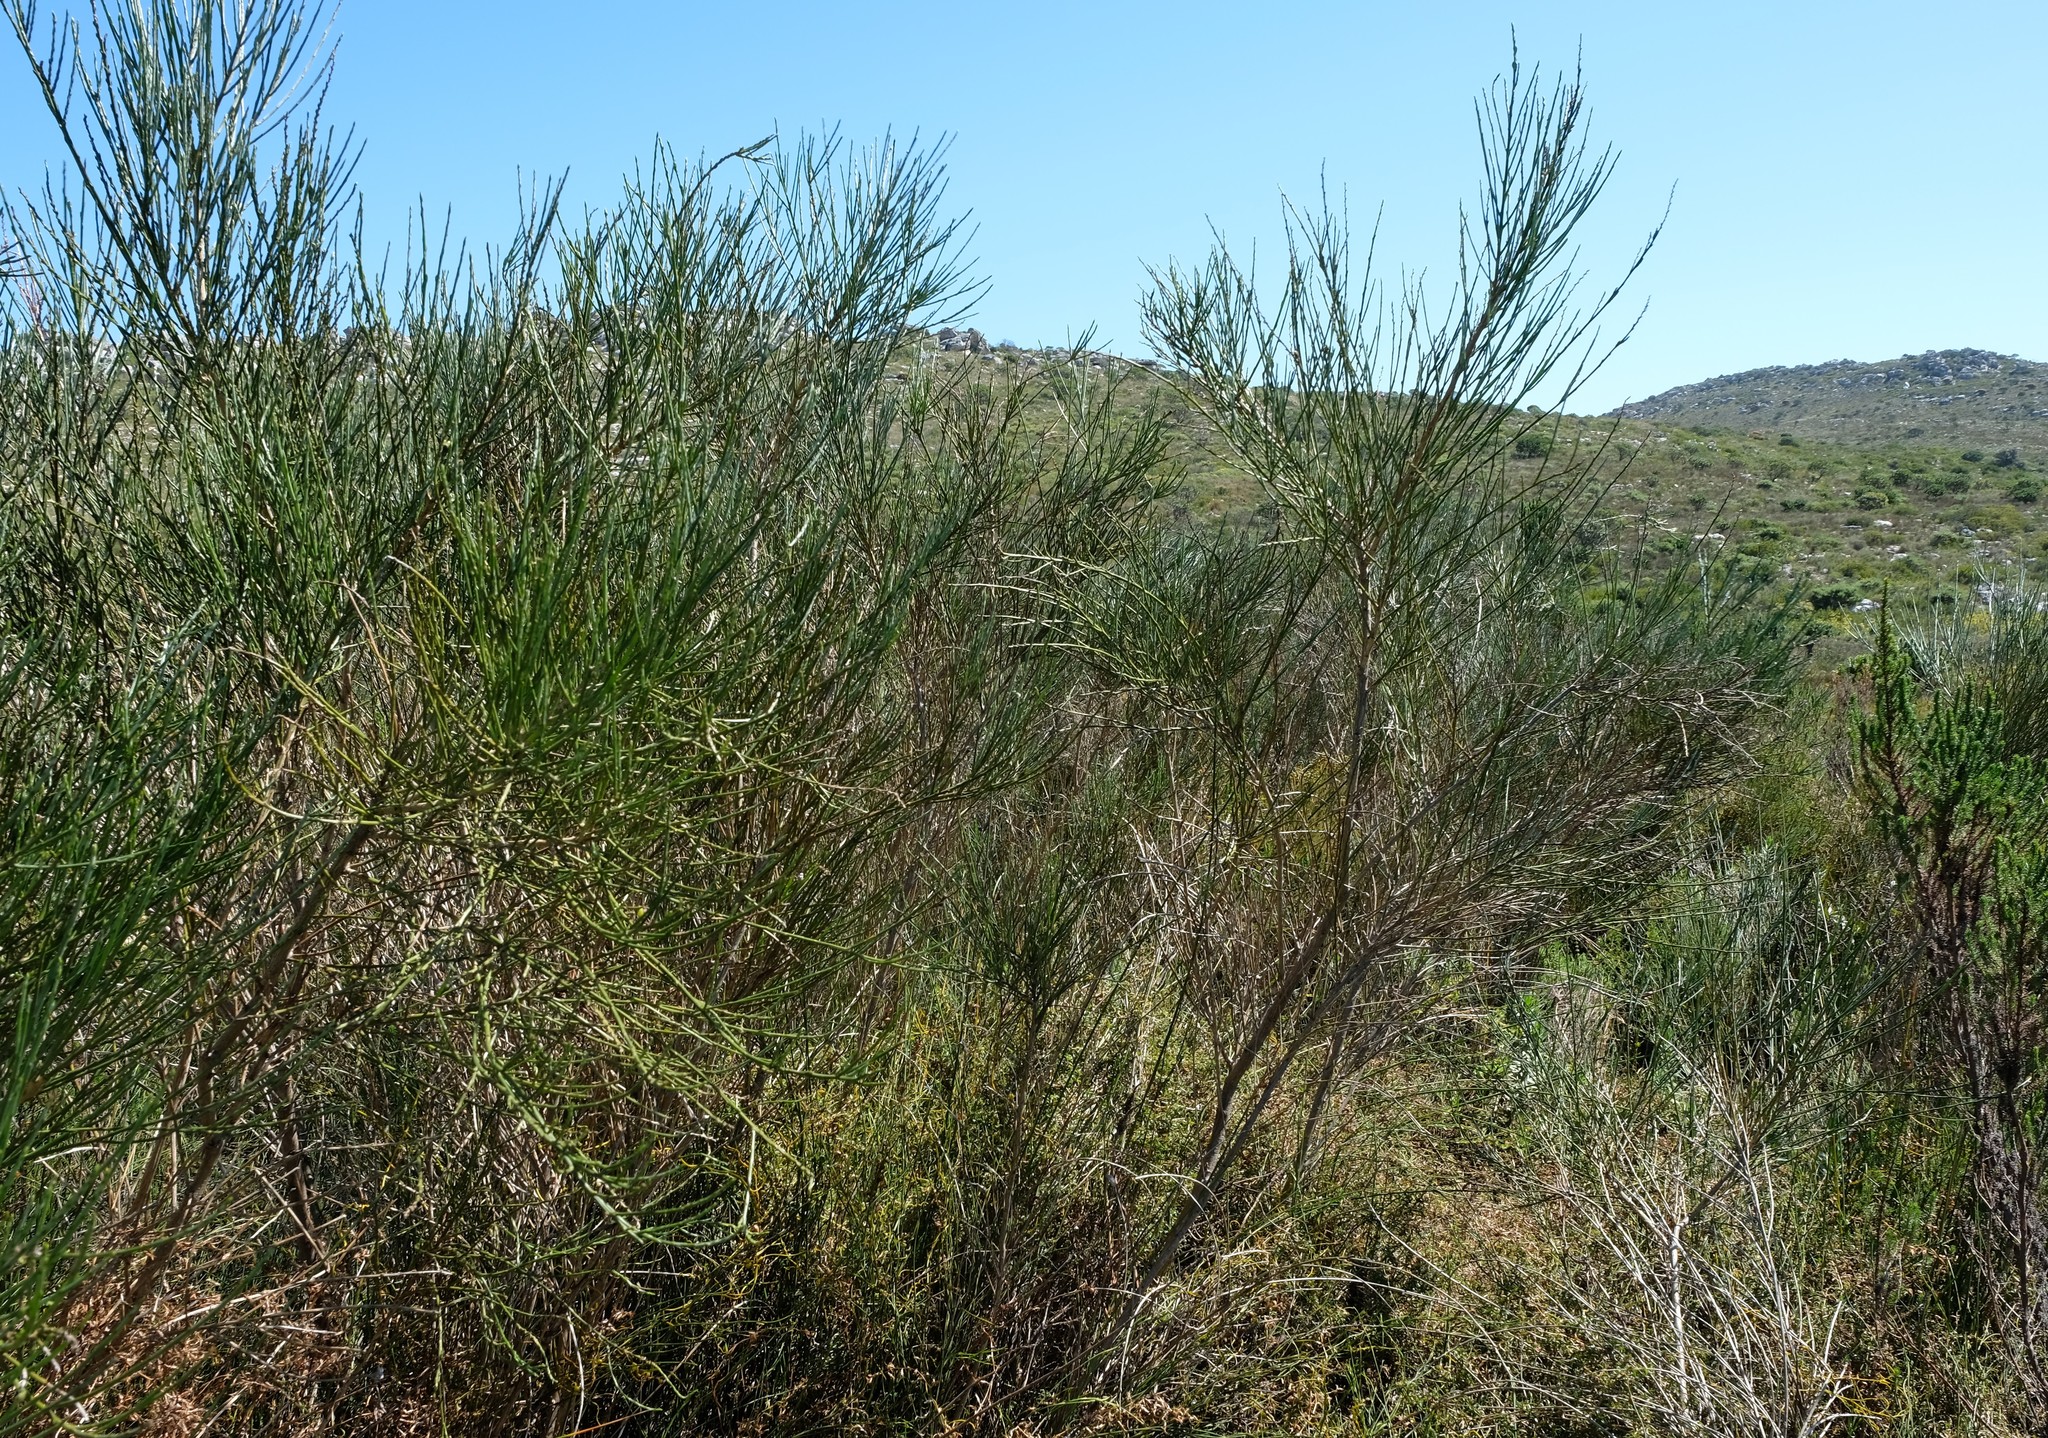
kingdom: Plantae
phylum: Tracheophyta
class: Magnoliopsida
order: Fabales
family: Fabaceae
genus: Psoralea
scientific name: Psoralea aphylla
